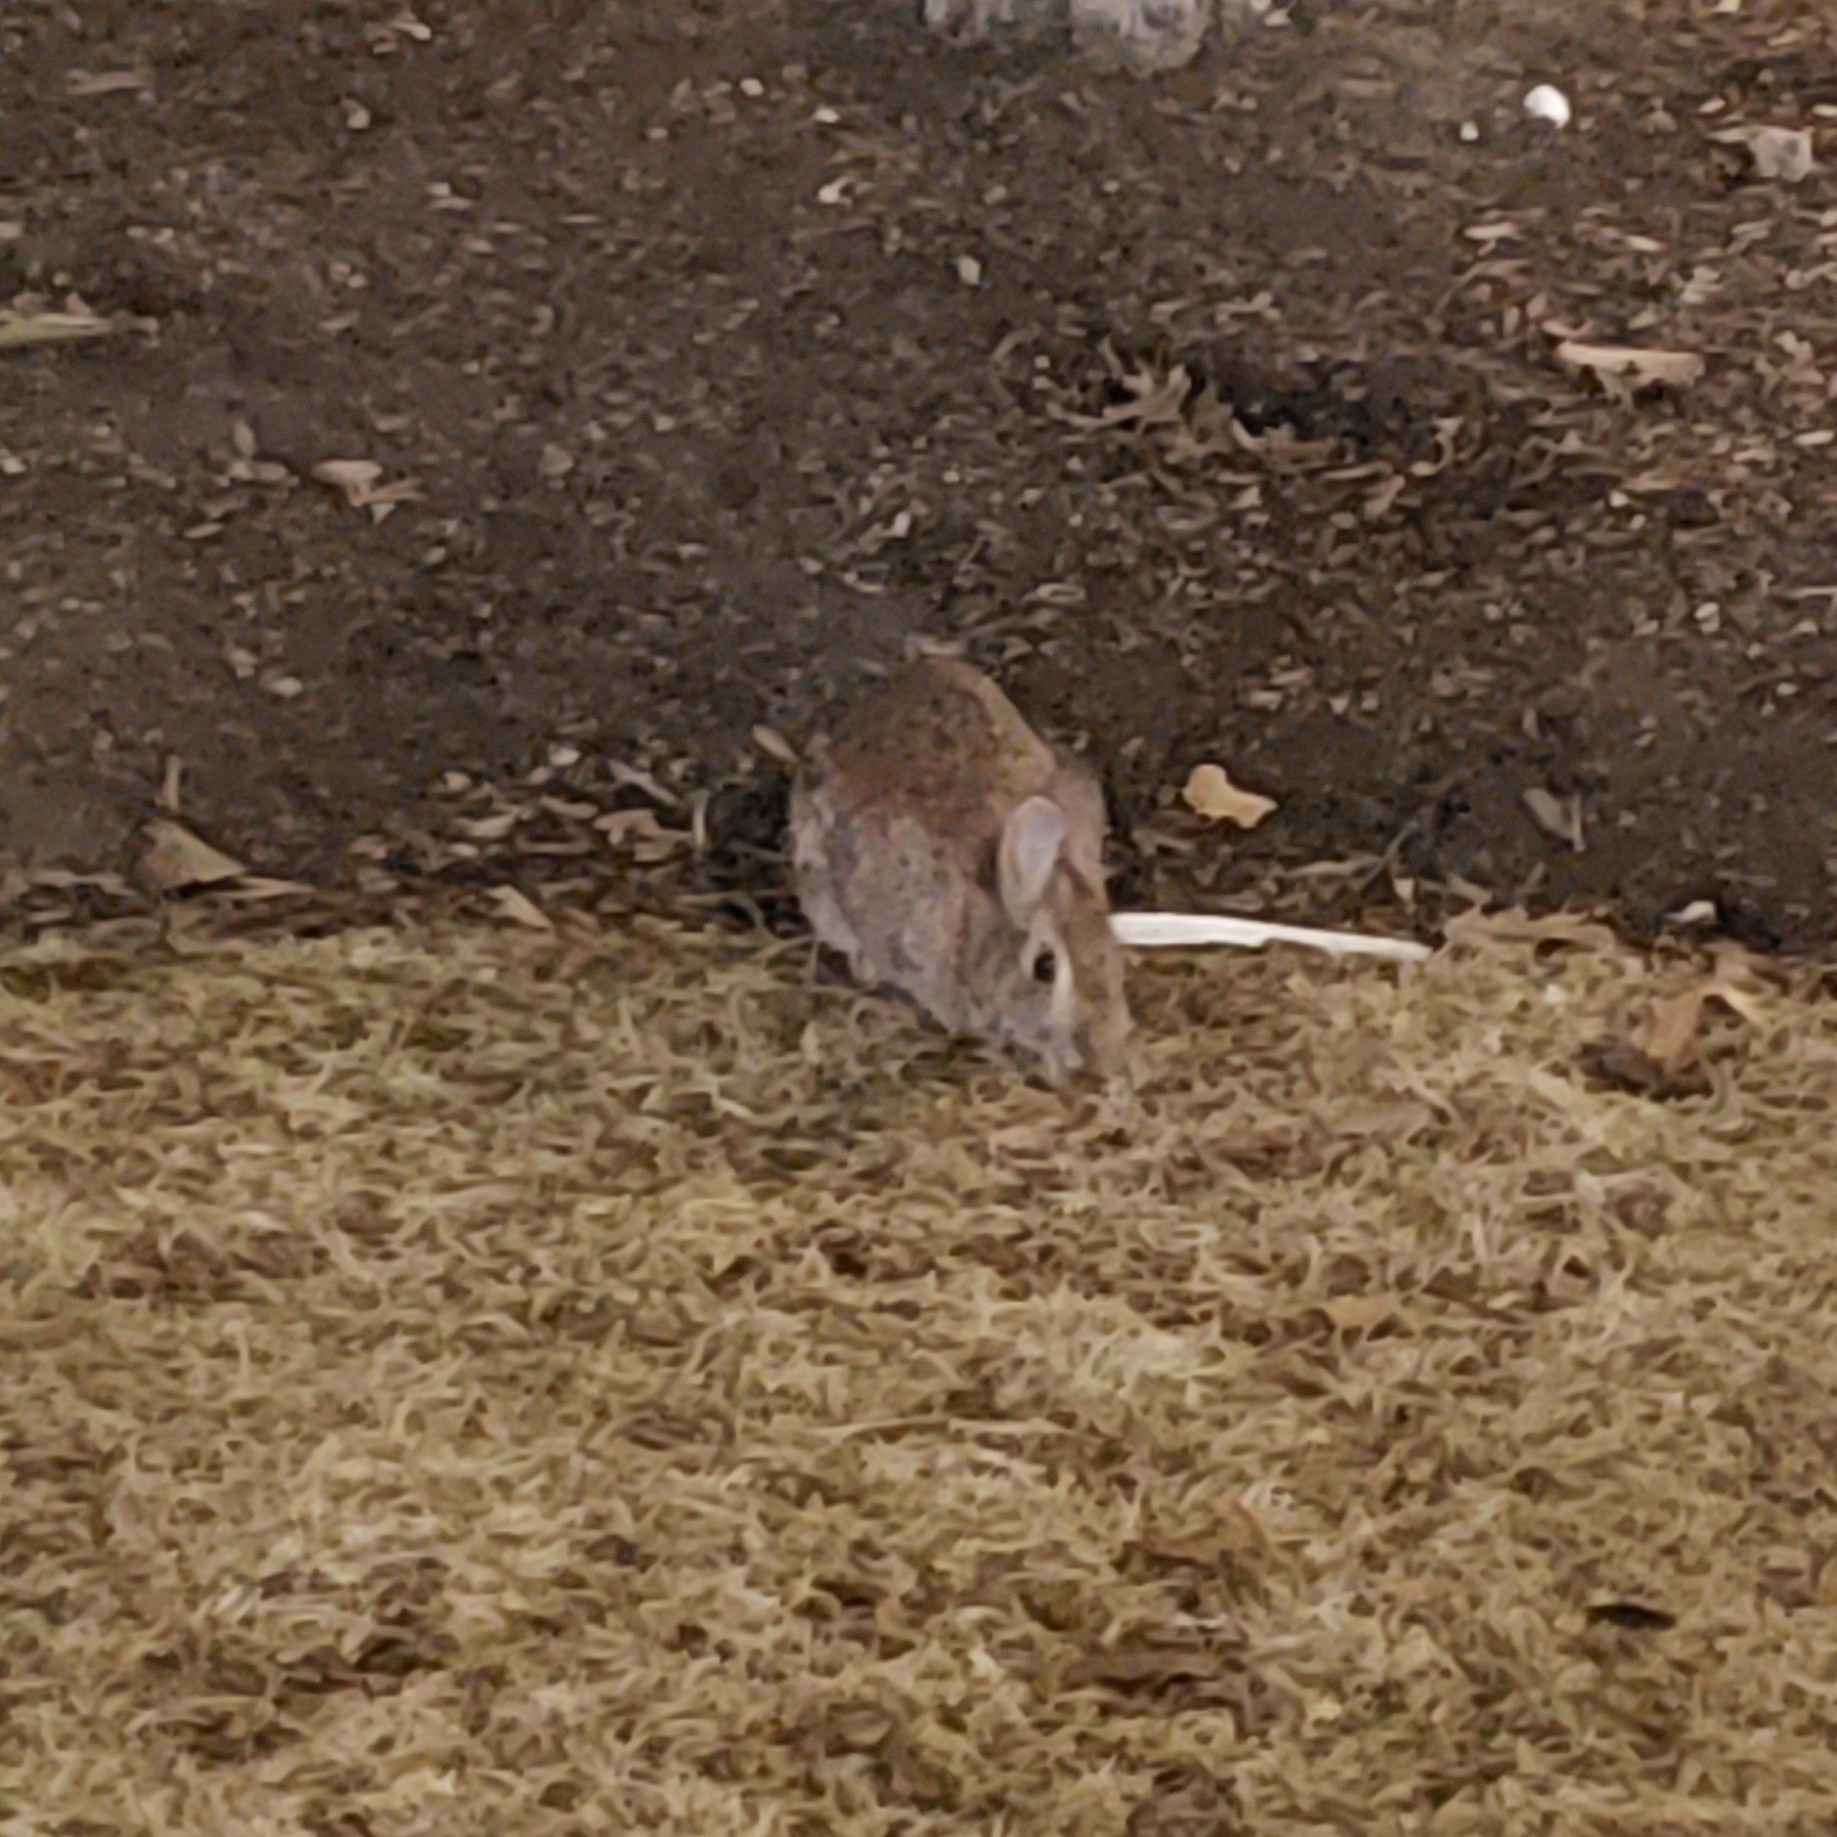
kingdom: Animalia
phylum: Chordata
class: Mammalia
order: Lagomorpha
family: Leporidae
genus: Sylvilagus
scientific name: Sylvilagus floridanus
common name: Eastern cottontail
